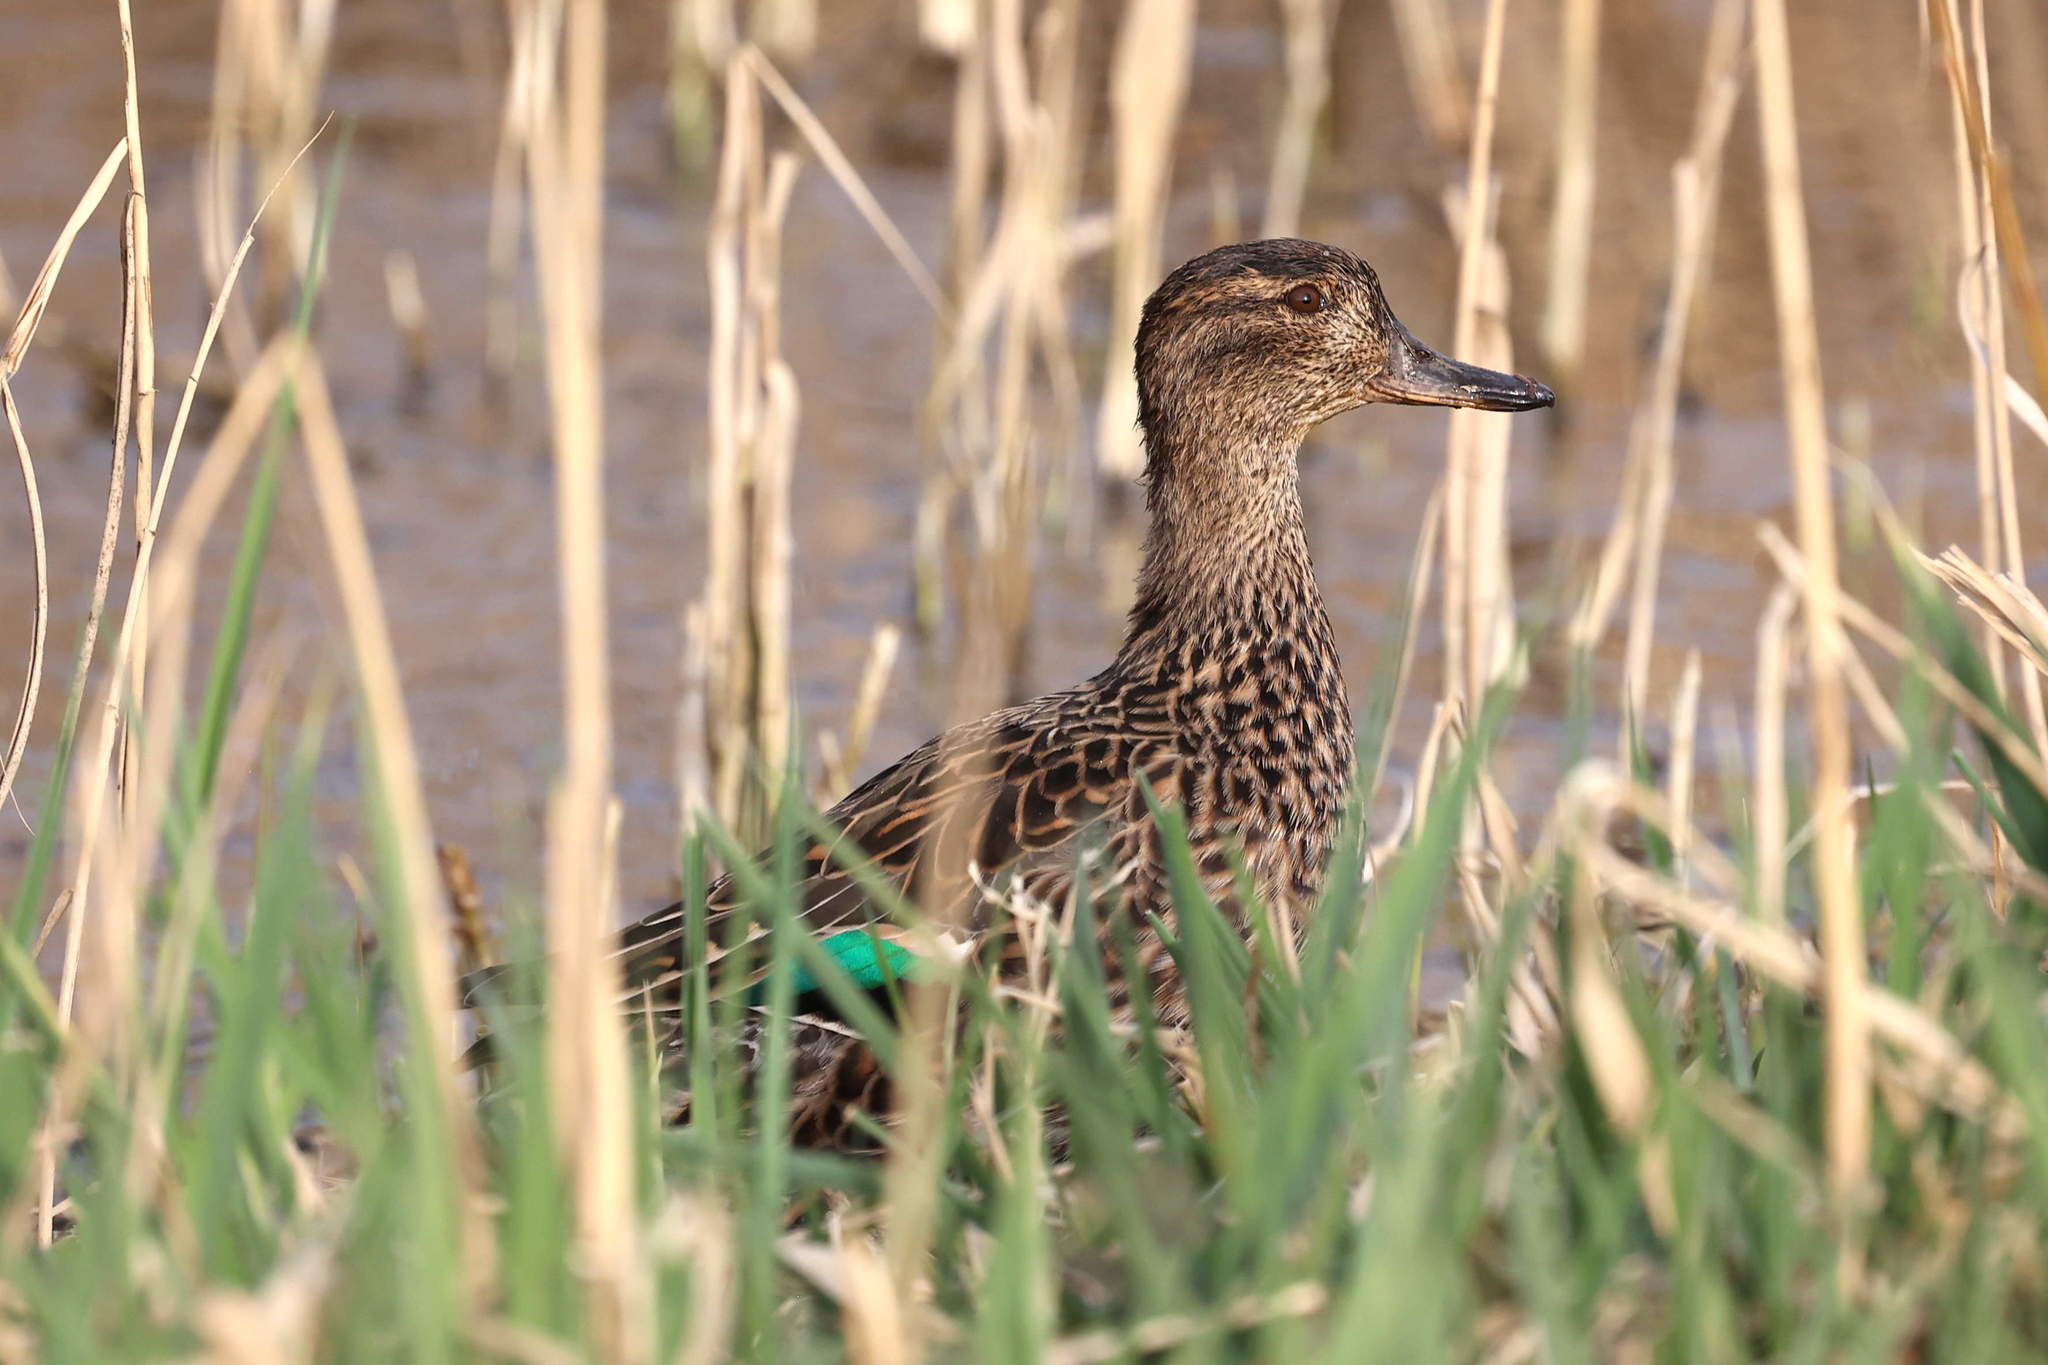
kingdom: Animalia
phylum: Chordata
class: Aves
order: Anseriformes
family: Anatidae
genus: Anas
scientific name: Anas crecca
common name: Eurasian teal
